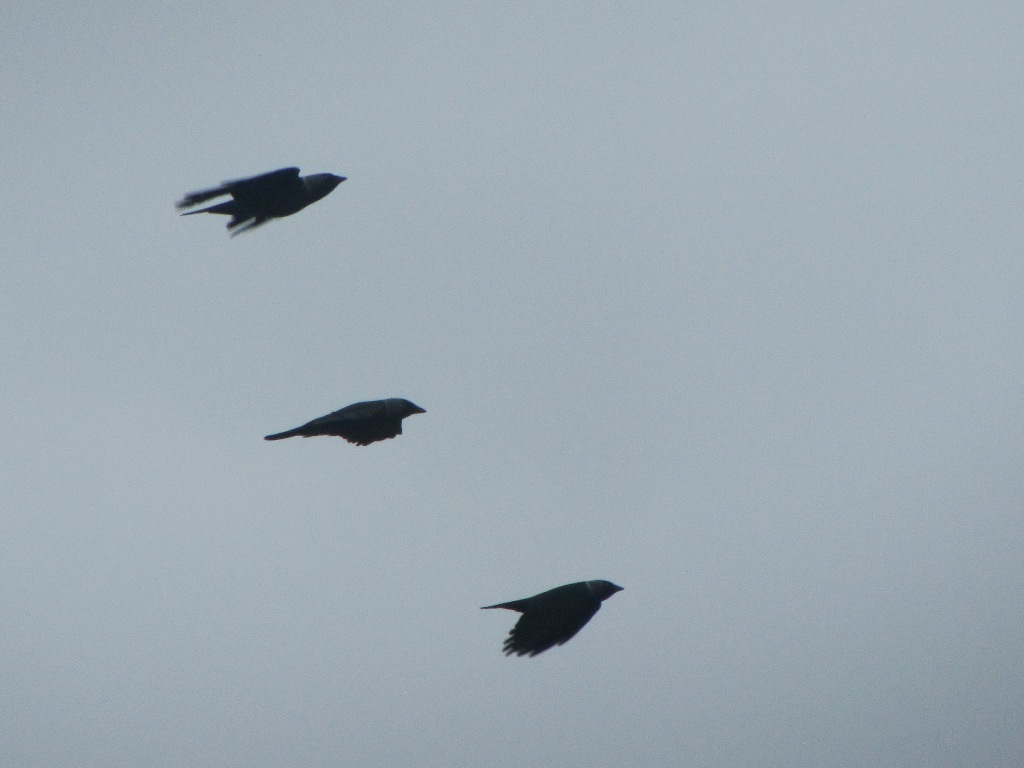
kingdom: Animalia
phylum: Chordata
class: Aves
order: Passeriformes
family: Corvidae
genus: Coloeus
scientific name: Coloeus monedula
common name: Western jackdaw
